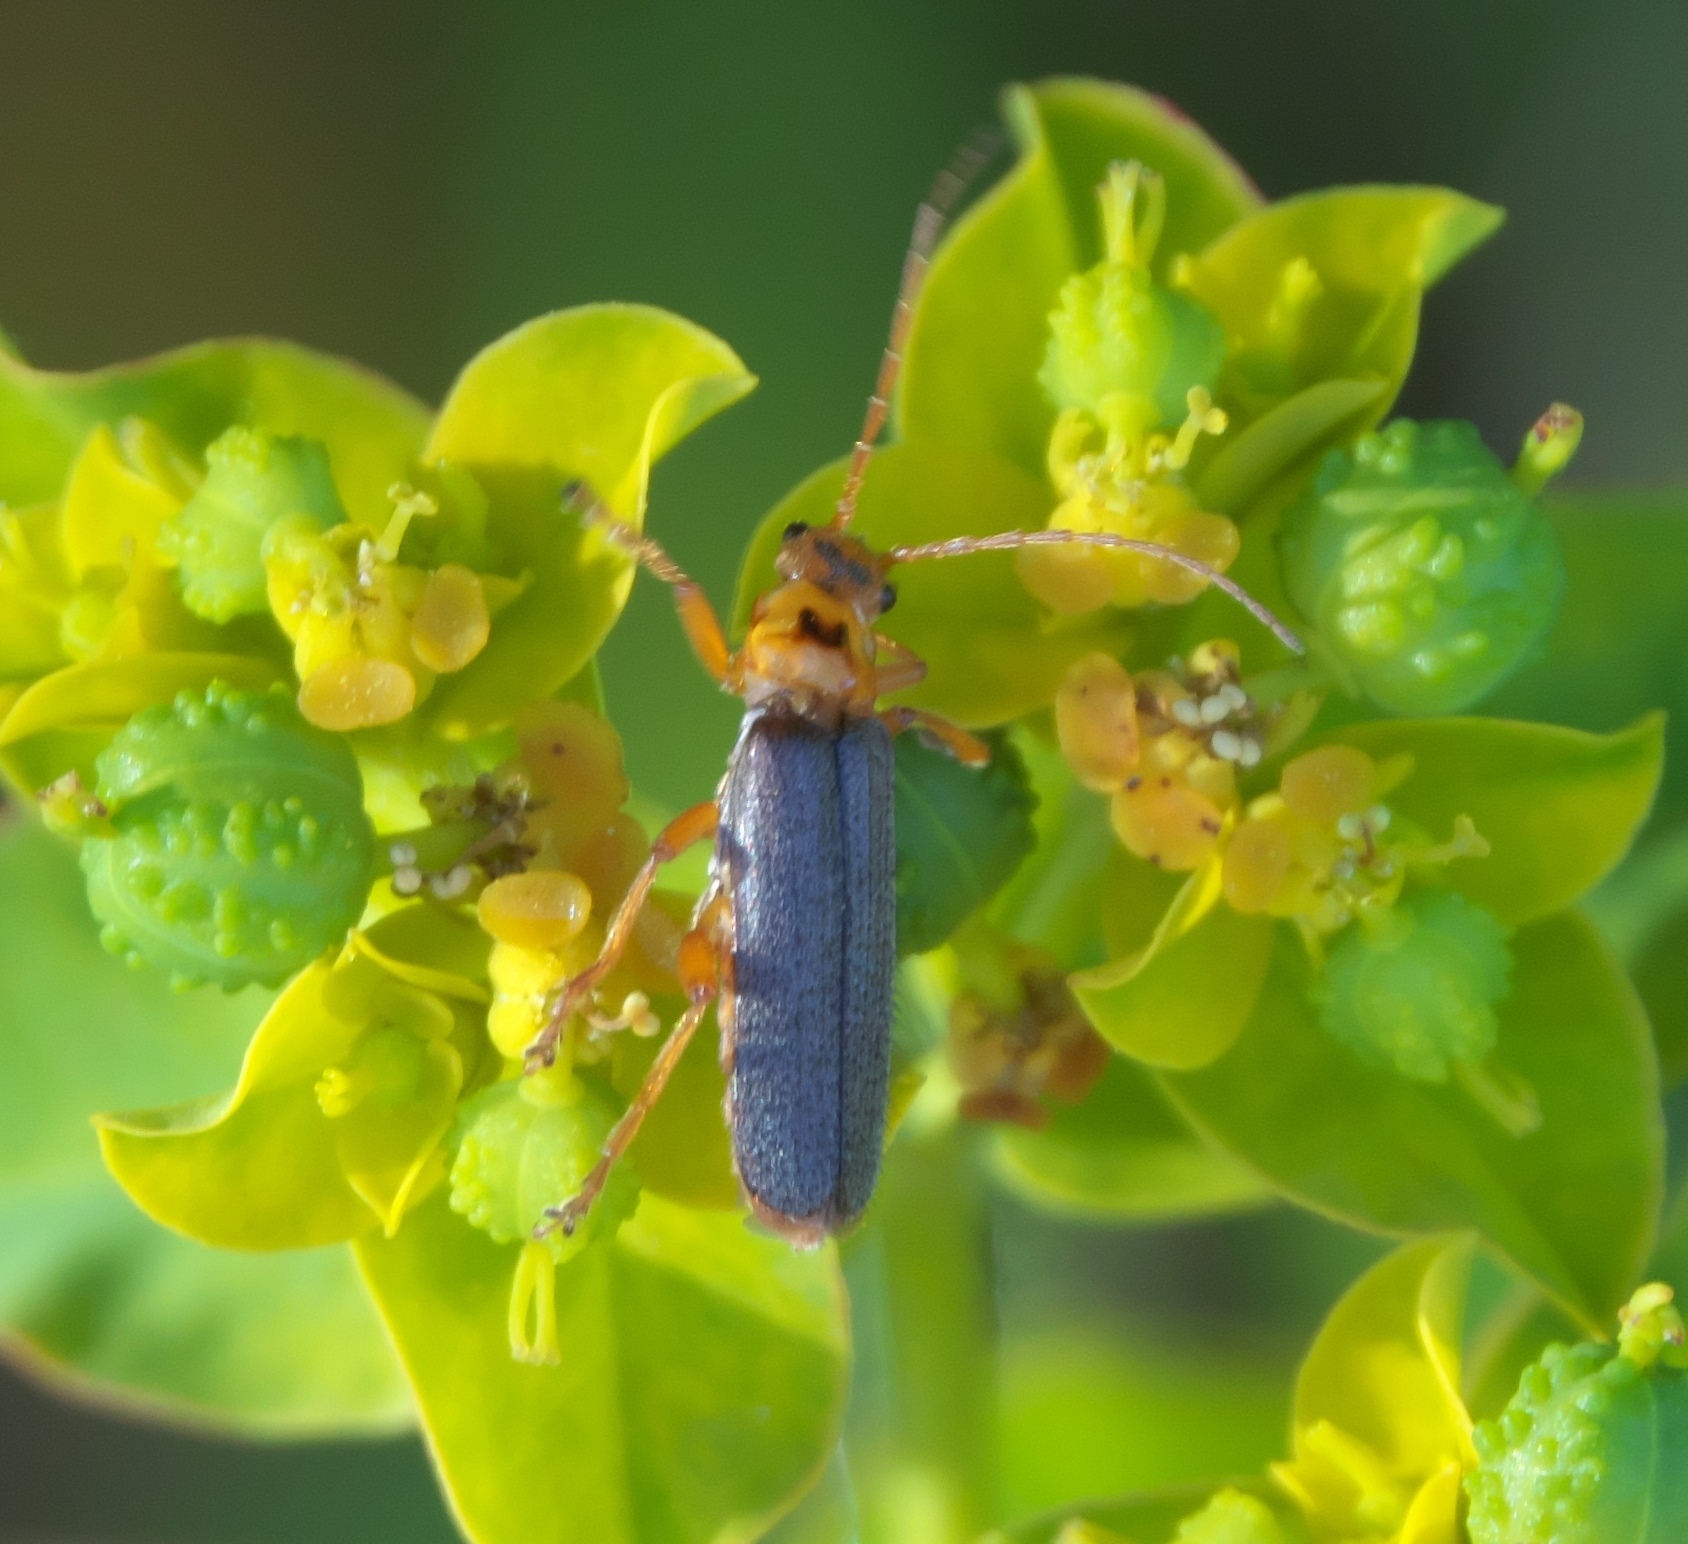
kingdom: Animalia
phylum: Arthropoda
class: Insecta
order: Coleoptera
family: Cantharidae
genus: Cultellunguis
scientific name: Cultellunguis americanus
